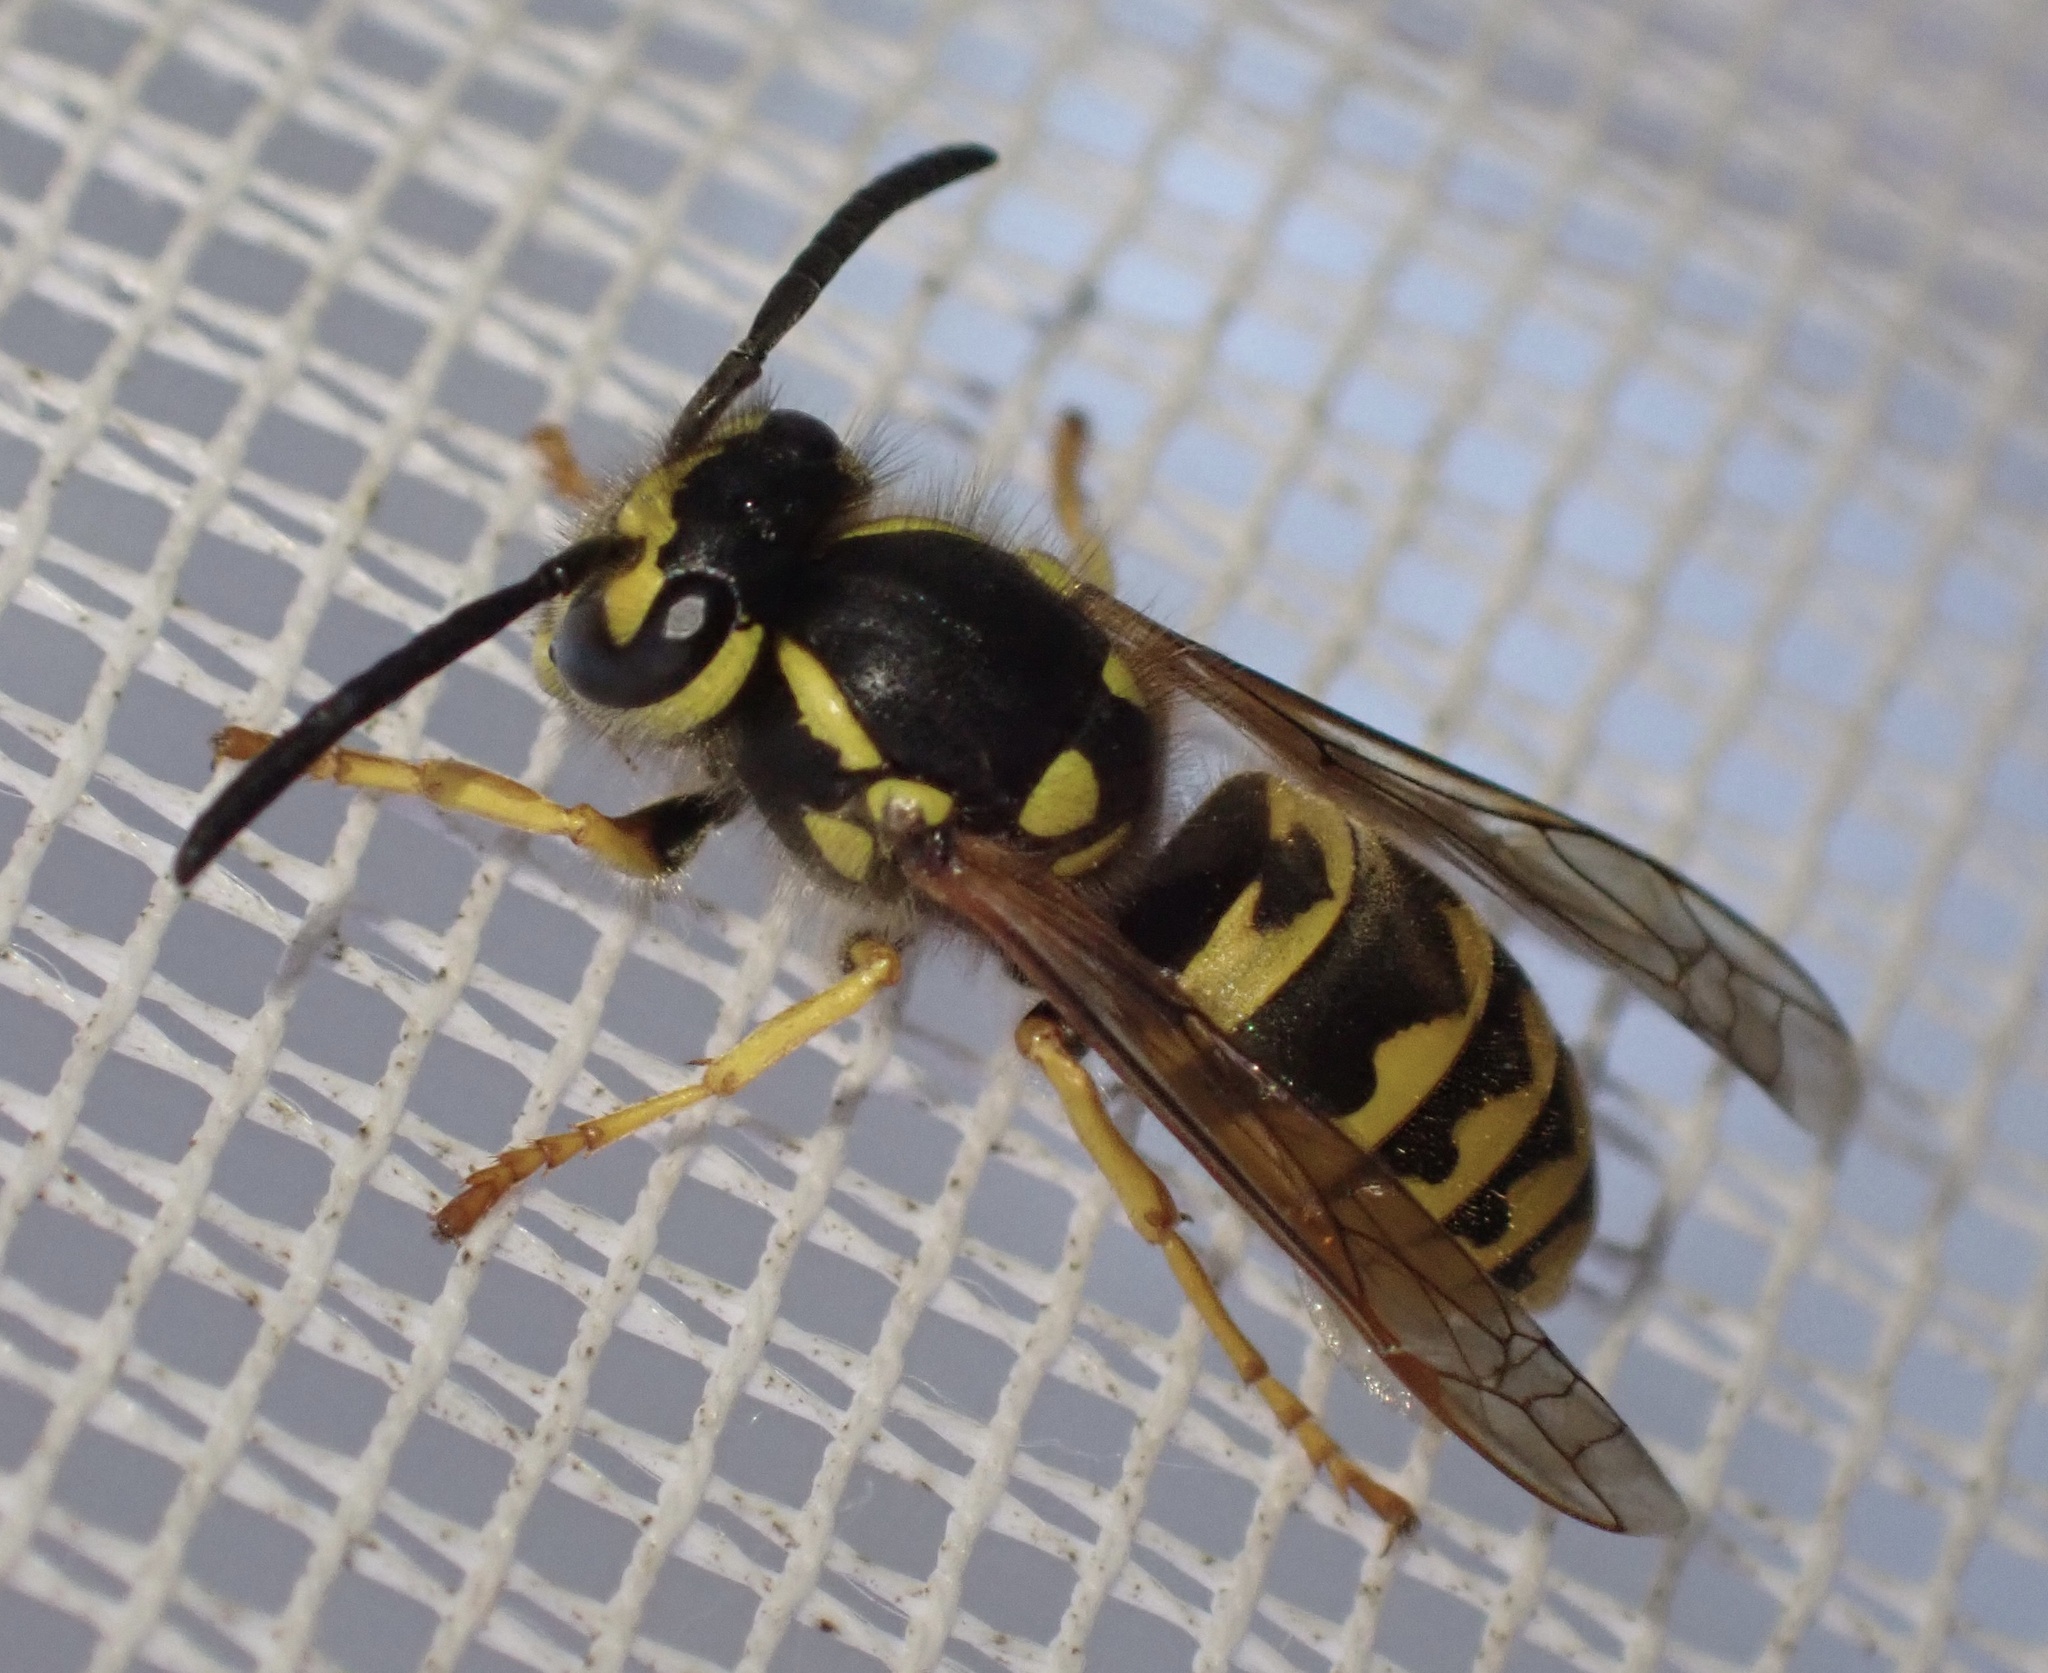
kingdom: Animalia
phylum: Arthropoda
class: Insecta
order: Hymenoptera
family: Vespidae
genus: Vespula
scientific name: Vespula germanica
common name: German wasp
